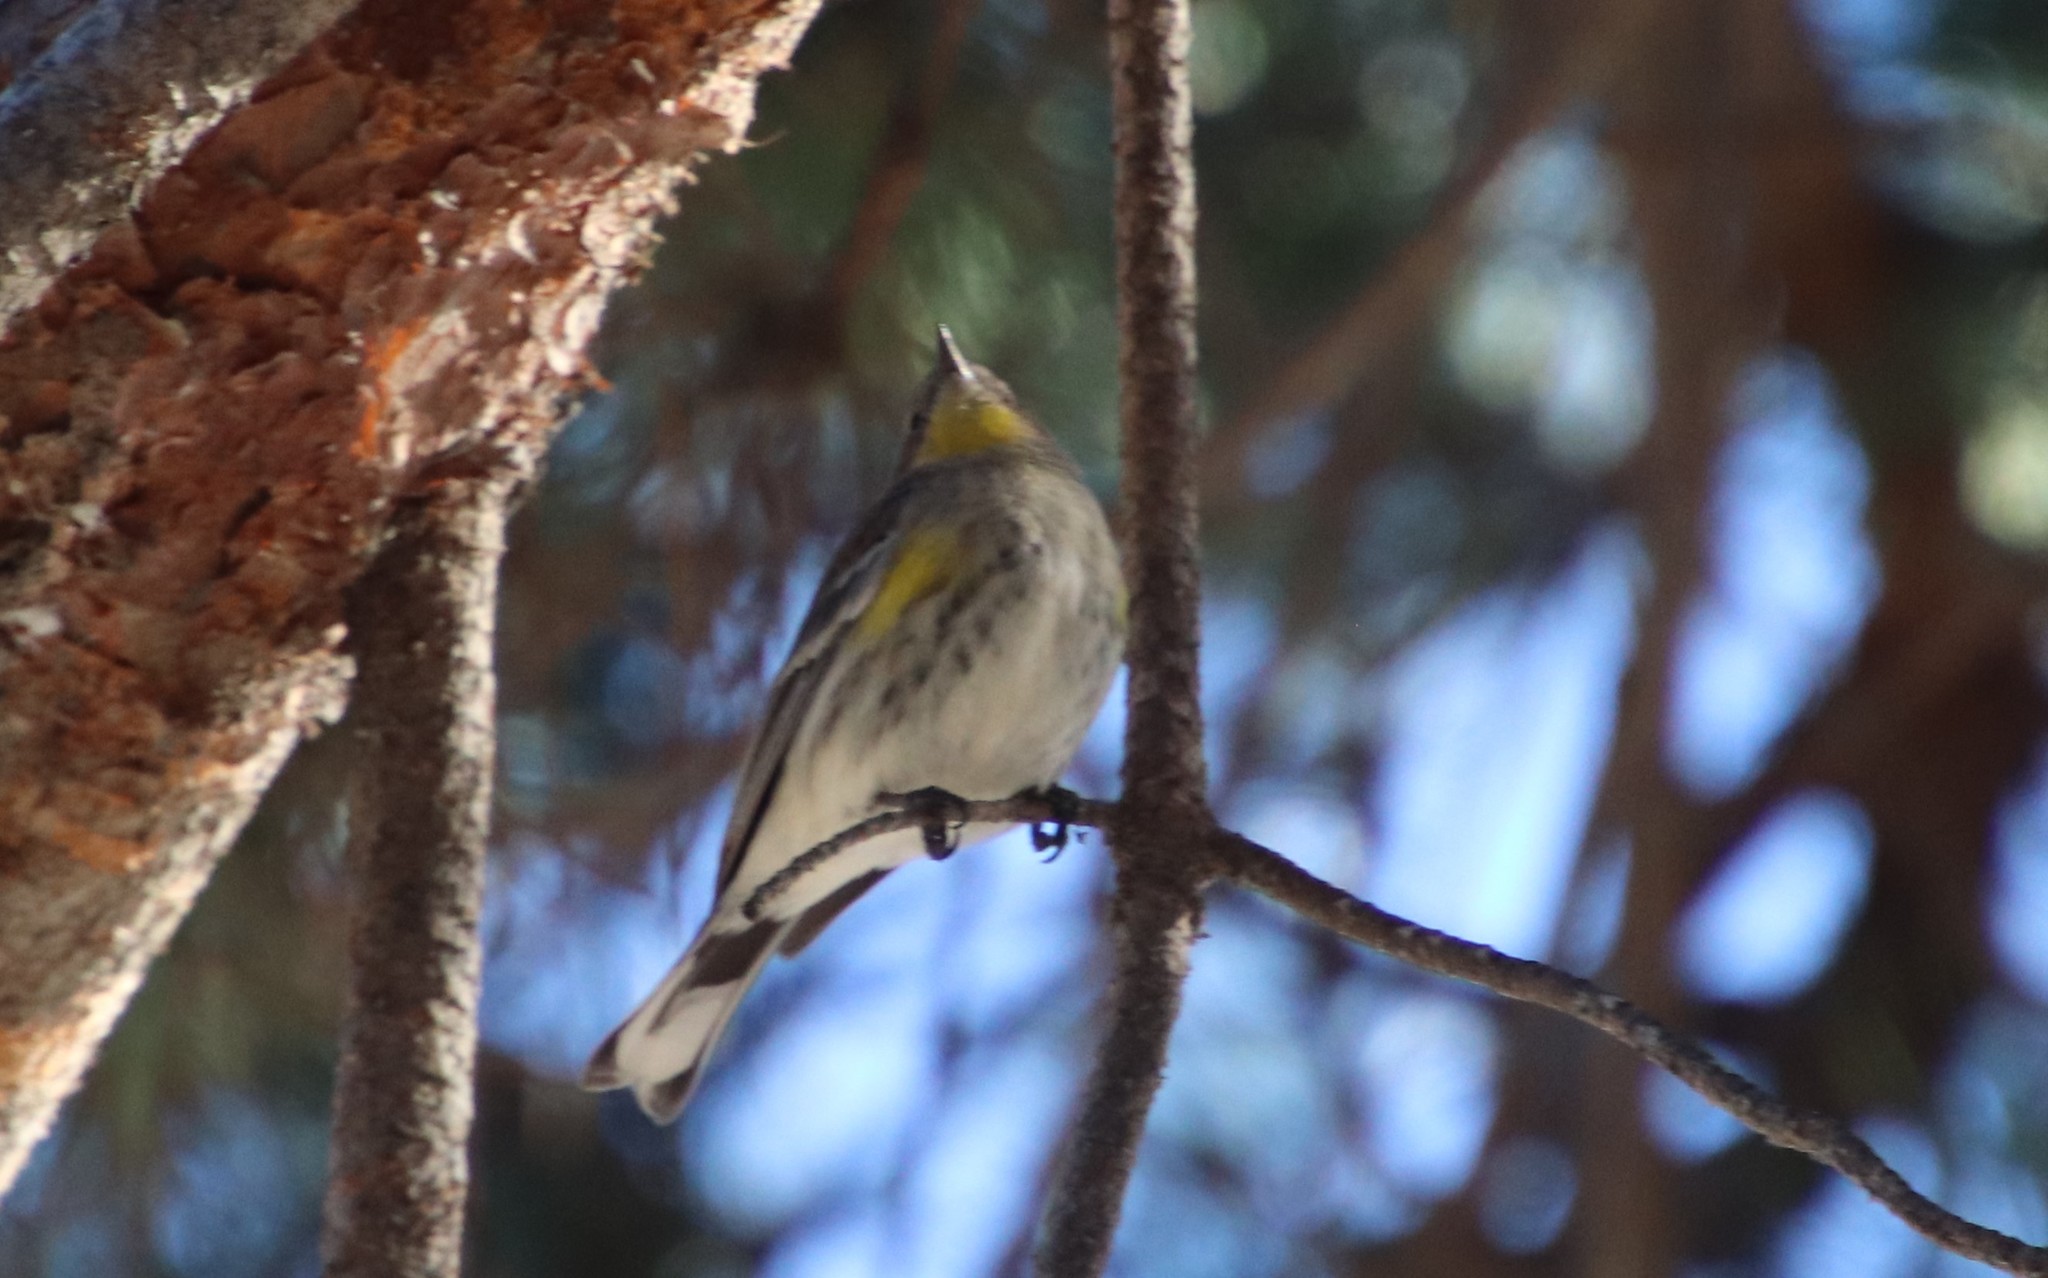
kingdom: Animalia
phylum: Chordata
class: Aves
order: Passeriformes
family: Parulidae
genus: Setophaga
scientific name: Setophaga auduboni
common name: Audubon's warbler
